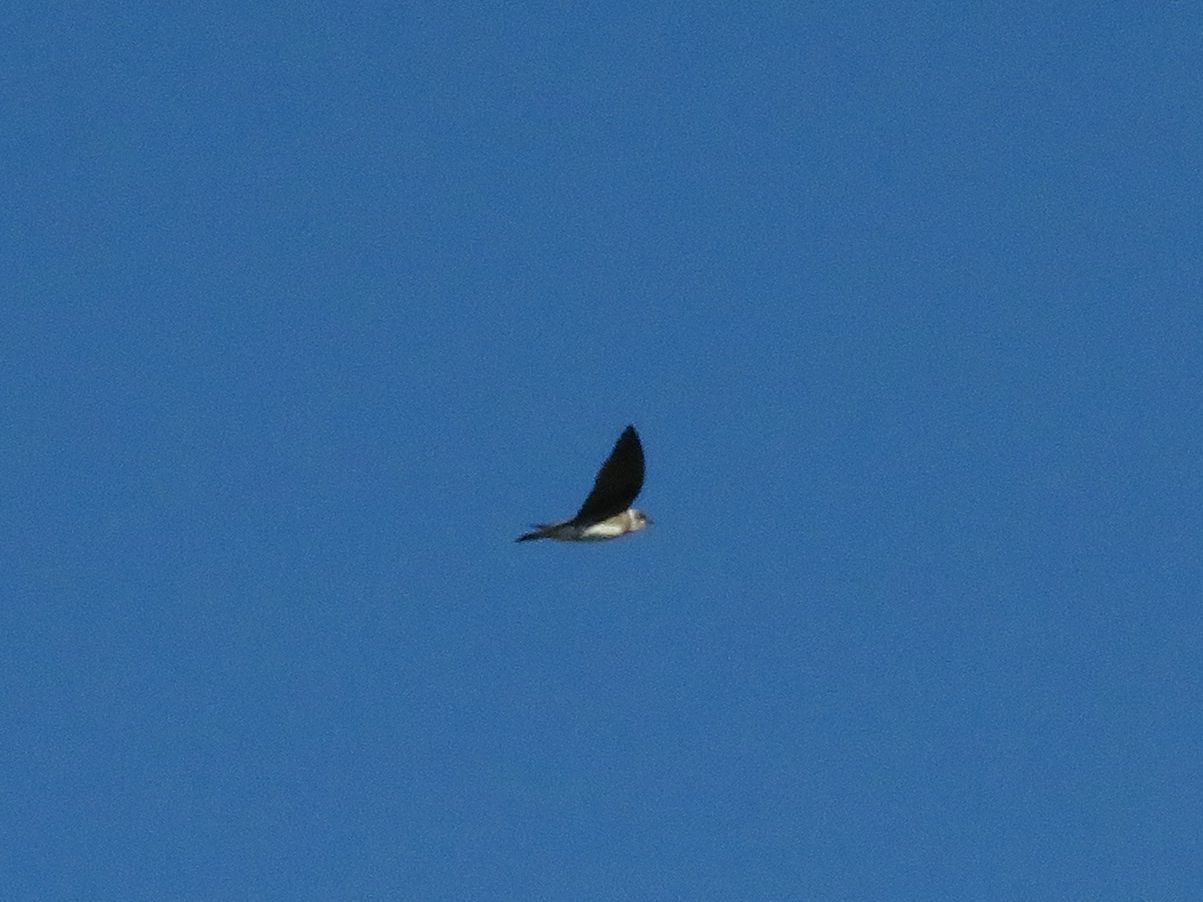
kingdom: Animalia
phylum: Chordata
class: Aves
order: Passeriformes
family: Hirundinidae
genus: Progne
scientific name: Progne tapera
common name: Brown-chested martin
